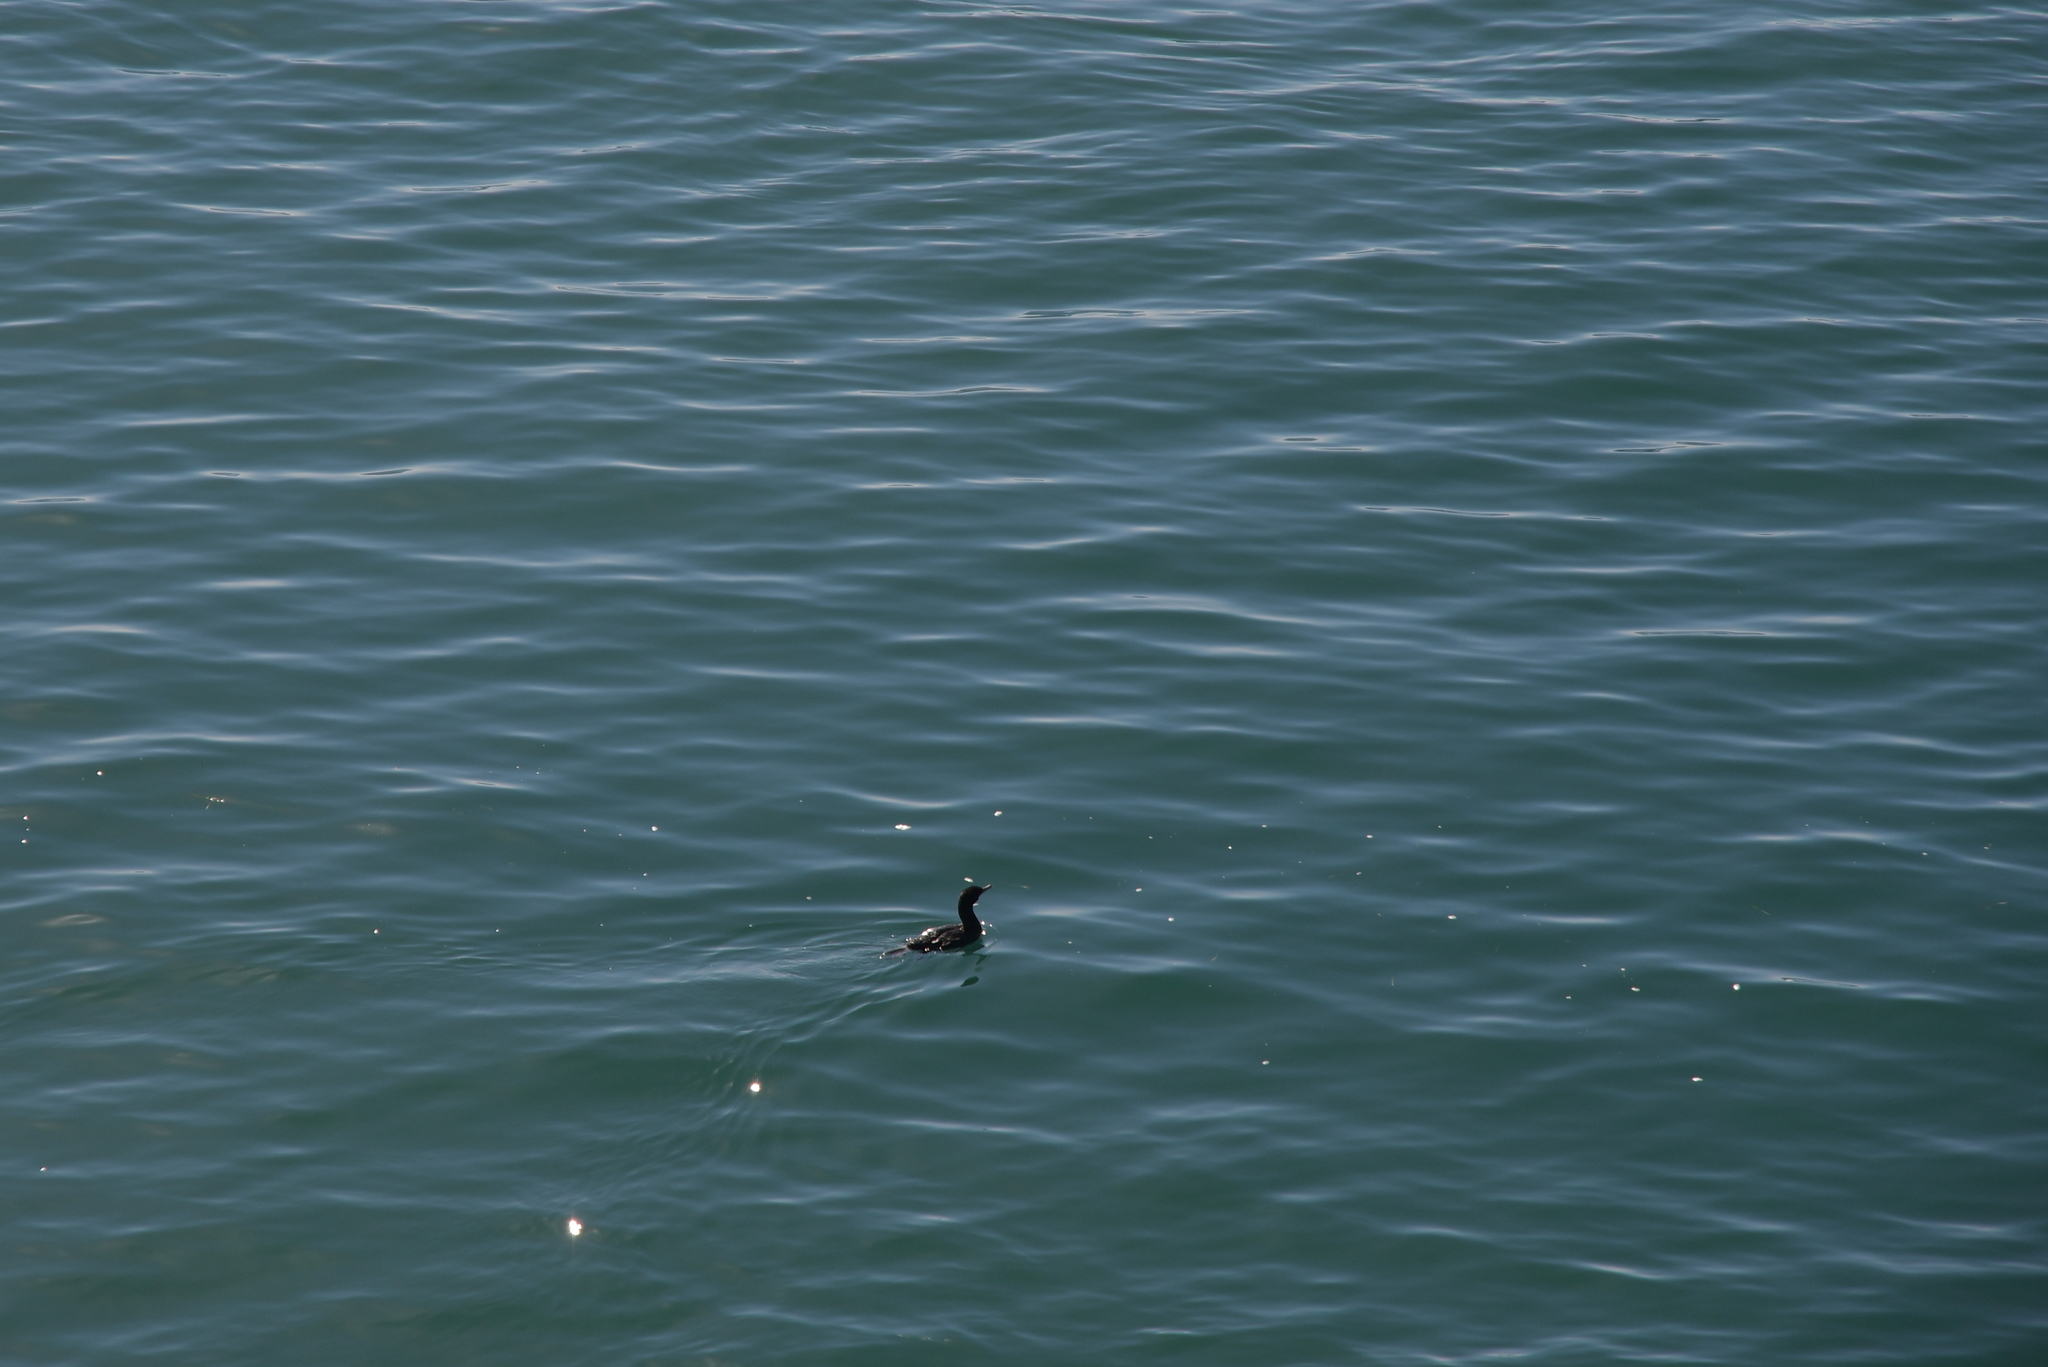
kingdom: Animalia
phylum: Chordata
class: Aves
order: Suliformes
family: Phalacrocoracidae
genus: Leucocarbo
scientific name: Leucocarbo chalconotus
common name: Stewart shag
